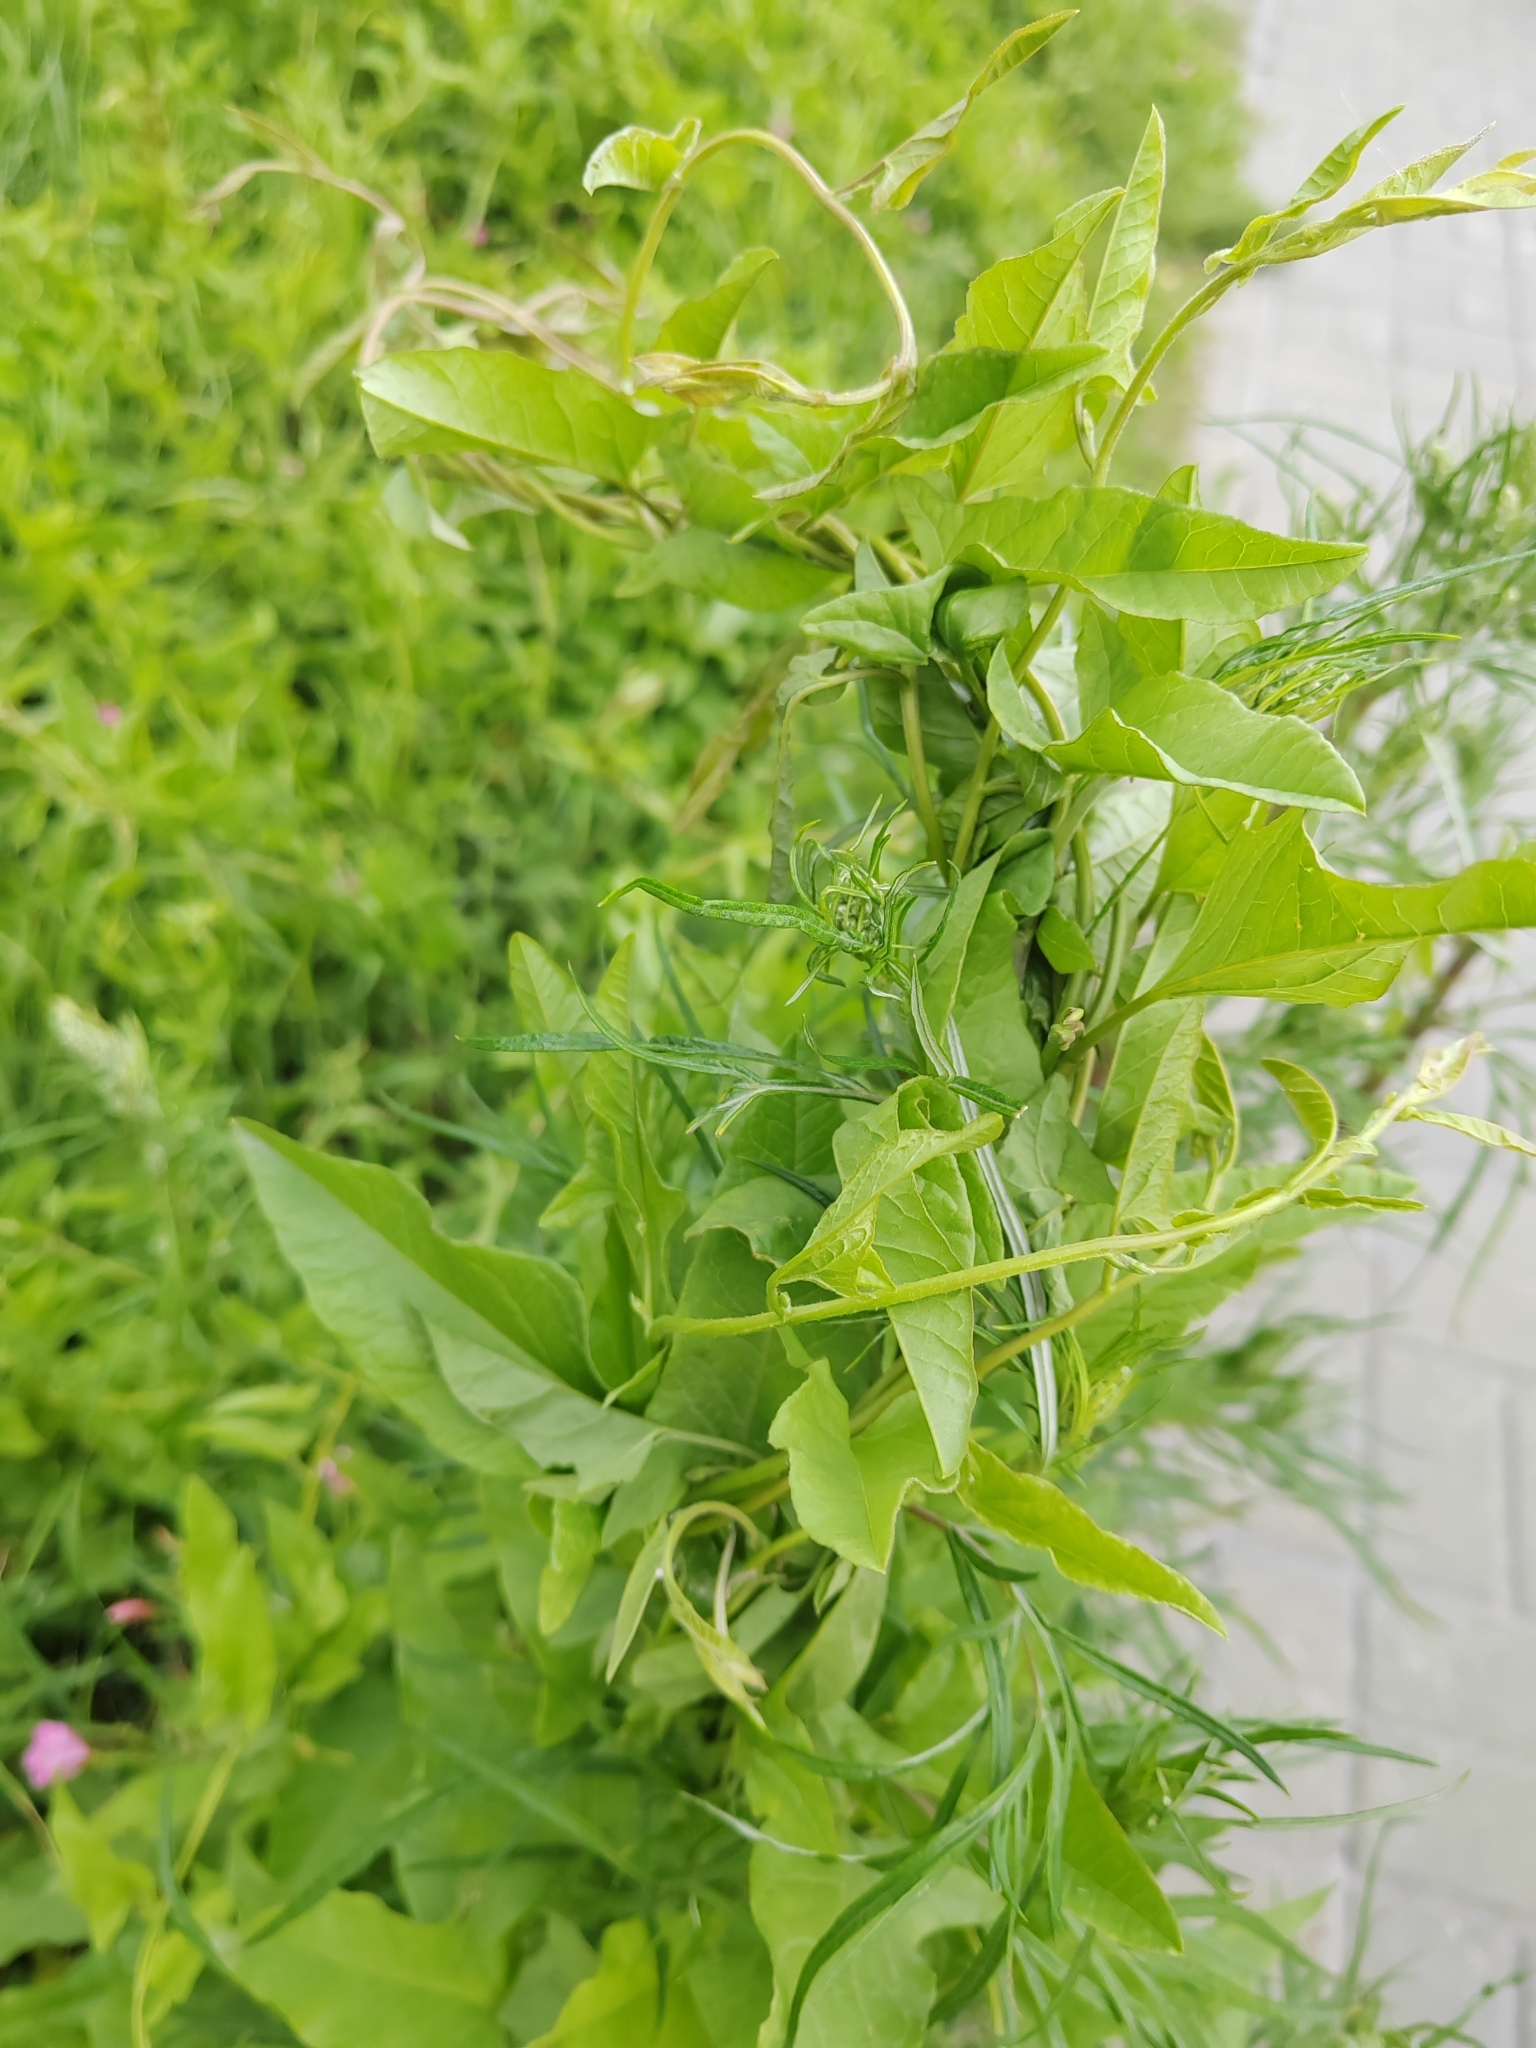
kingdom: Plantae
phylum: Tracheophyta
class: Magnoliopsida
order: Solanales
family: Convolvulaceae
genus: Convolvulus
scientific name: Convolvulus arvensis
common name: Field bindweed
